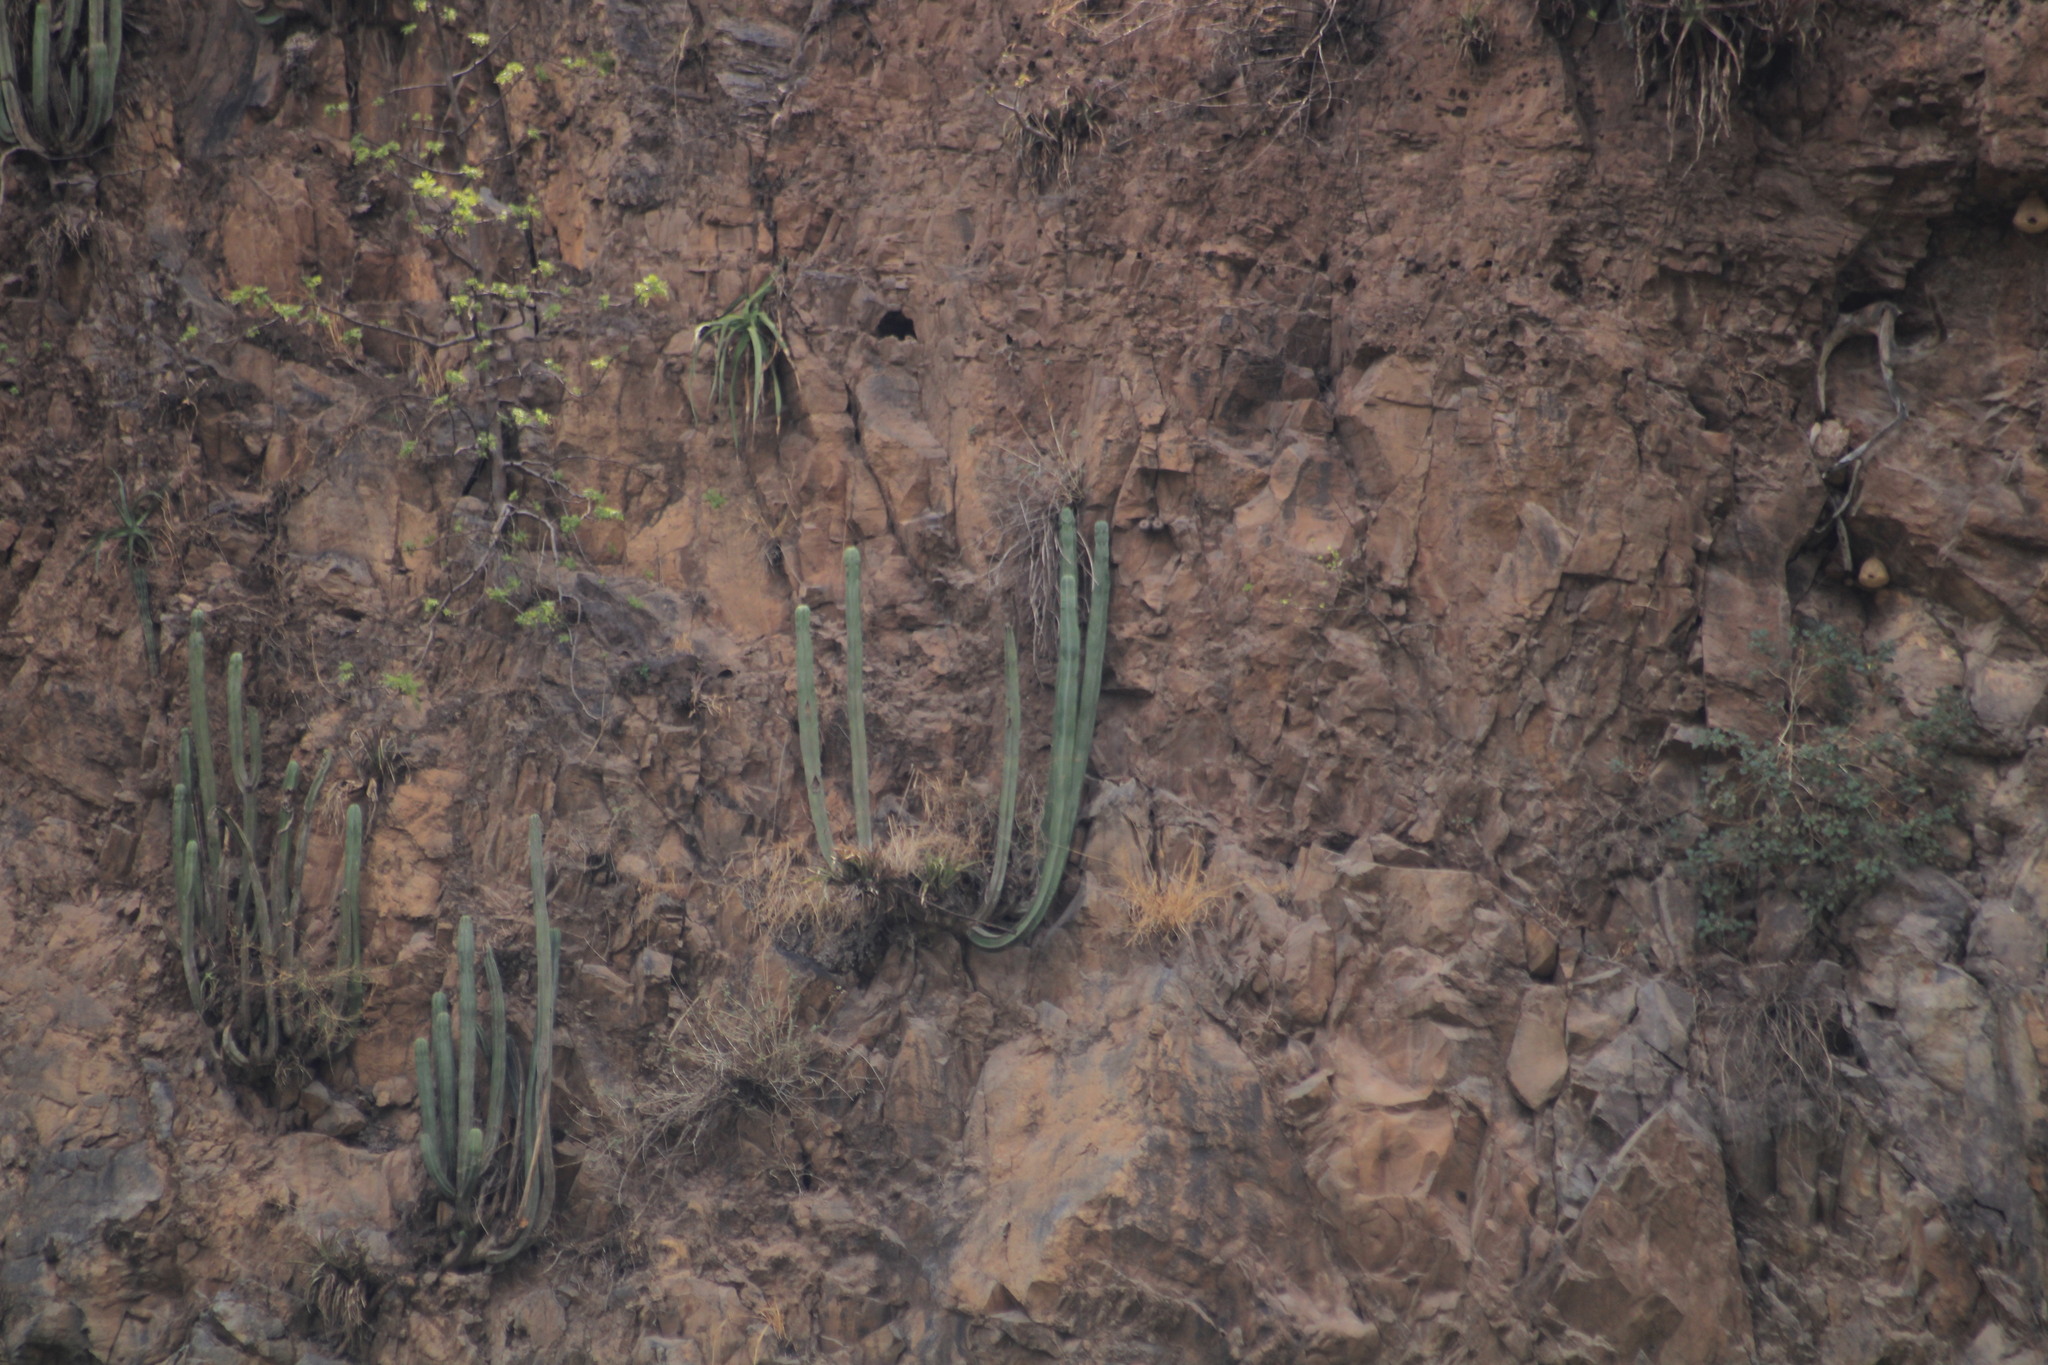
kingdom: Plantae
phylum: Tracheophyta
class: Magnoliopsida
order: Caryophyllales
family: Cactaceae
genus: Stenocereus
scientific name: Stenocereus dumortieri
